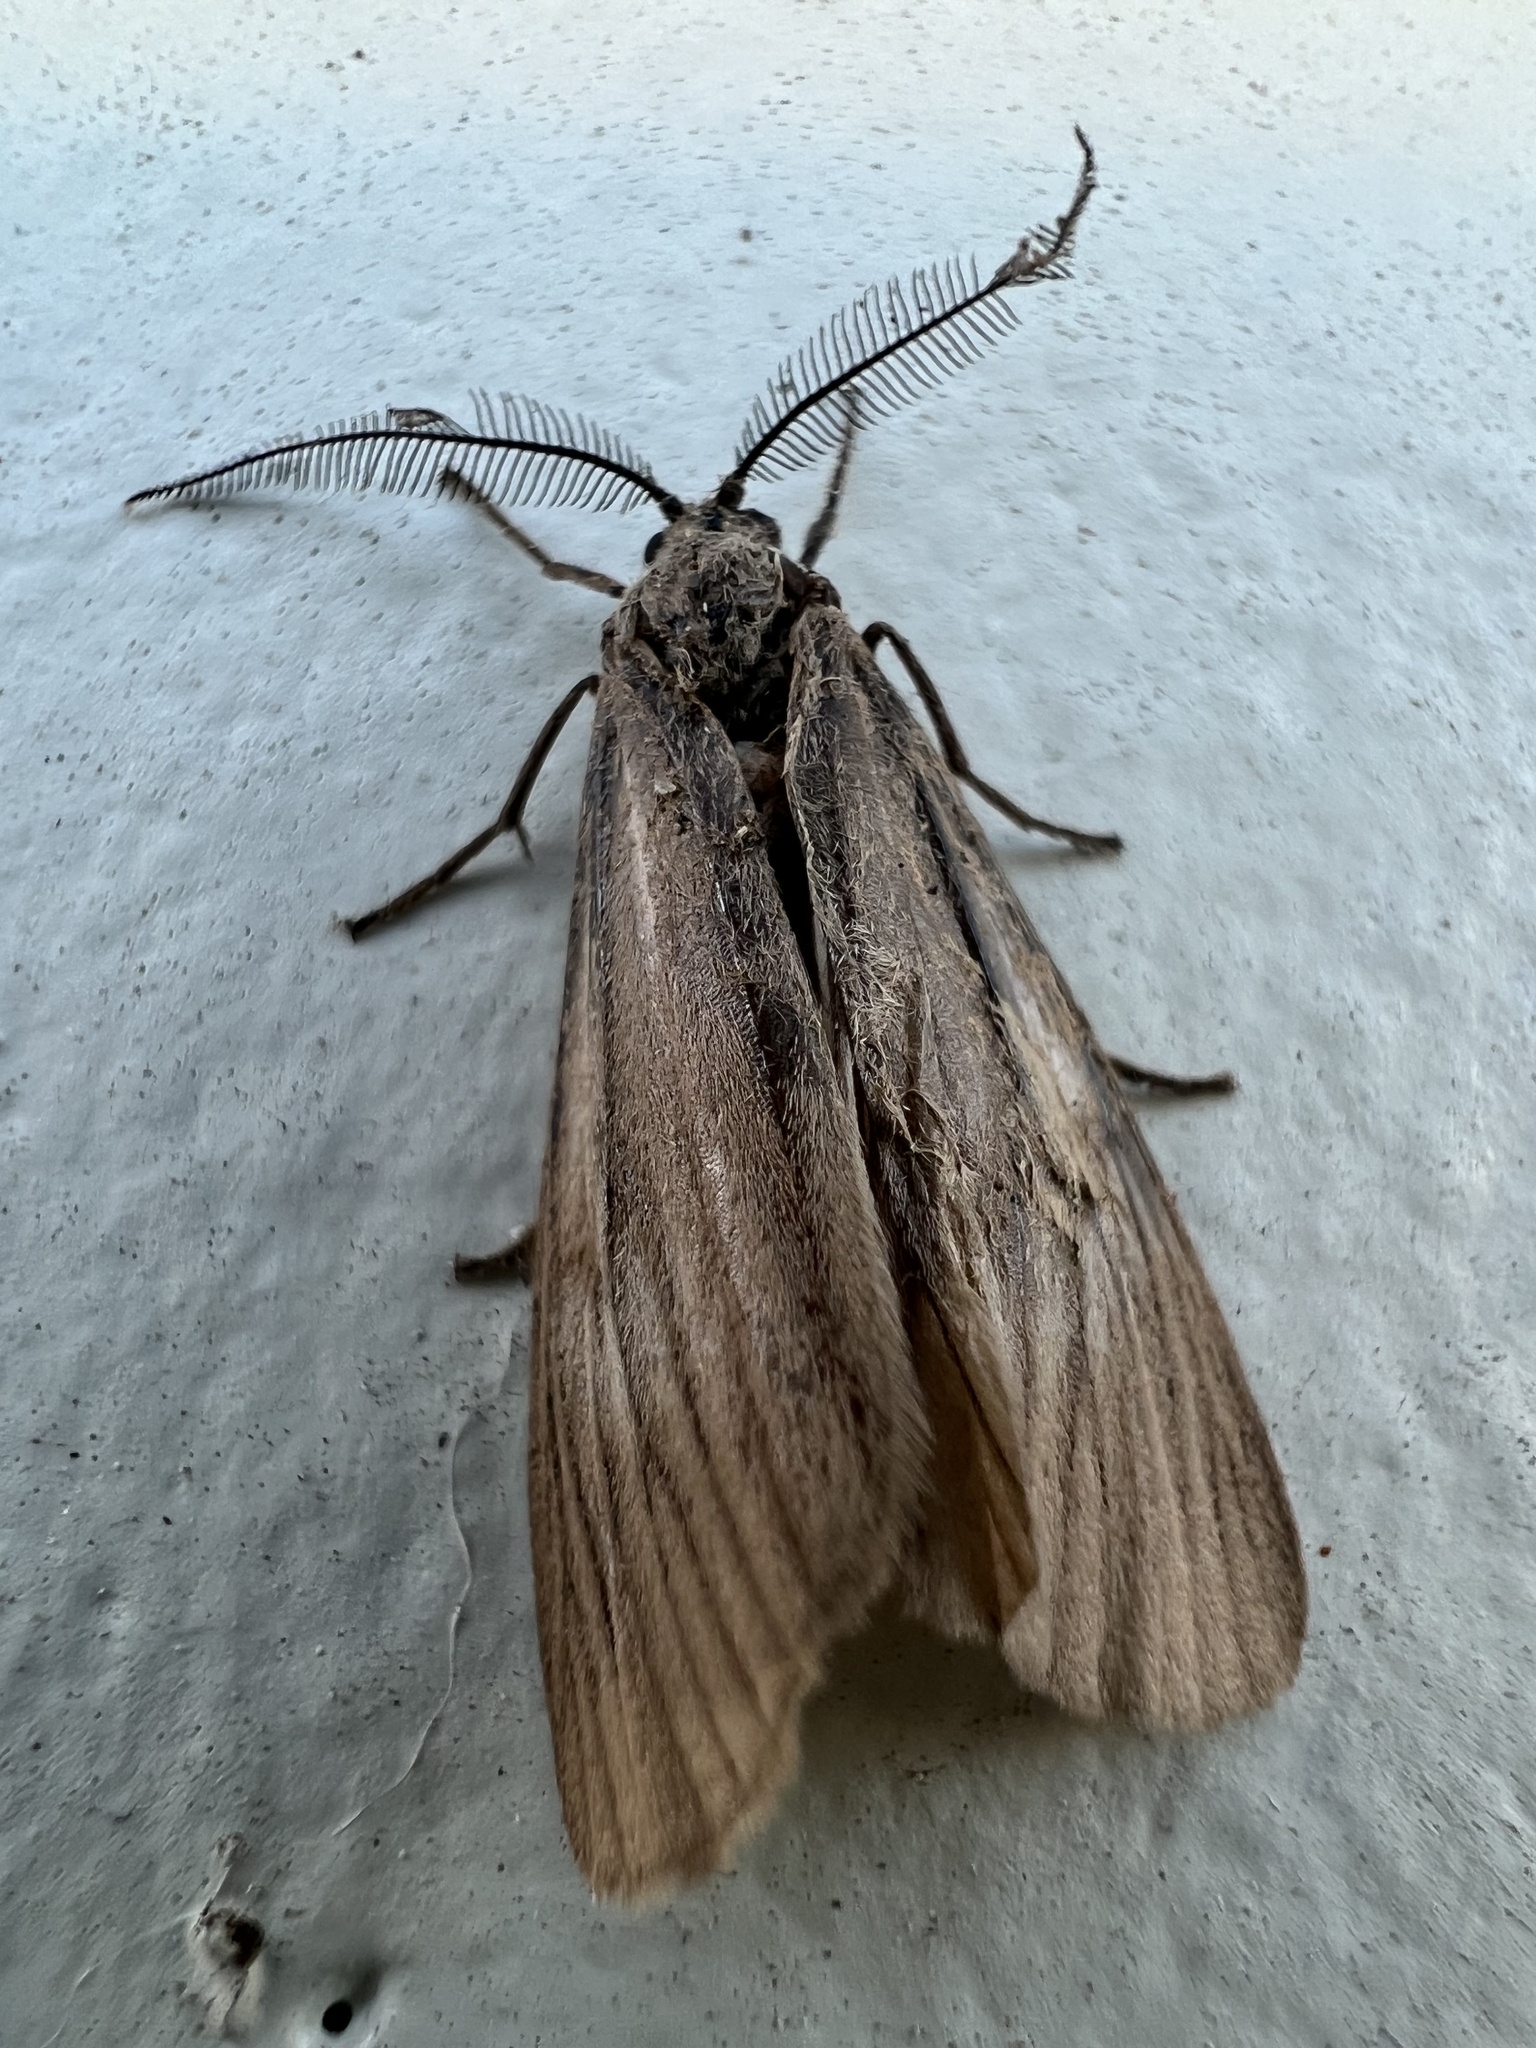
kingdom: Animalia
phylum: Arthropoda
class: Insecta
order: Lepidoptera
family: Notodontidae
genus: Phryganidia
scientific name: Phryganidia californica
